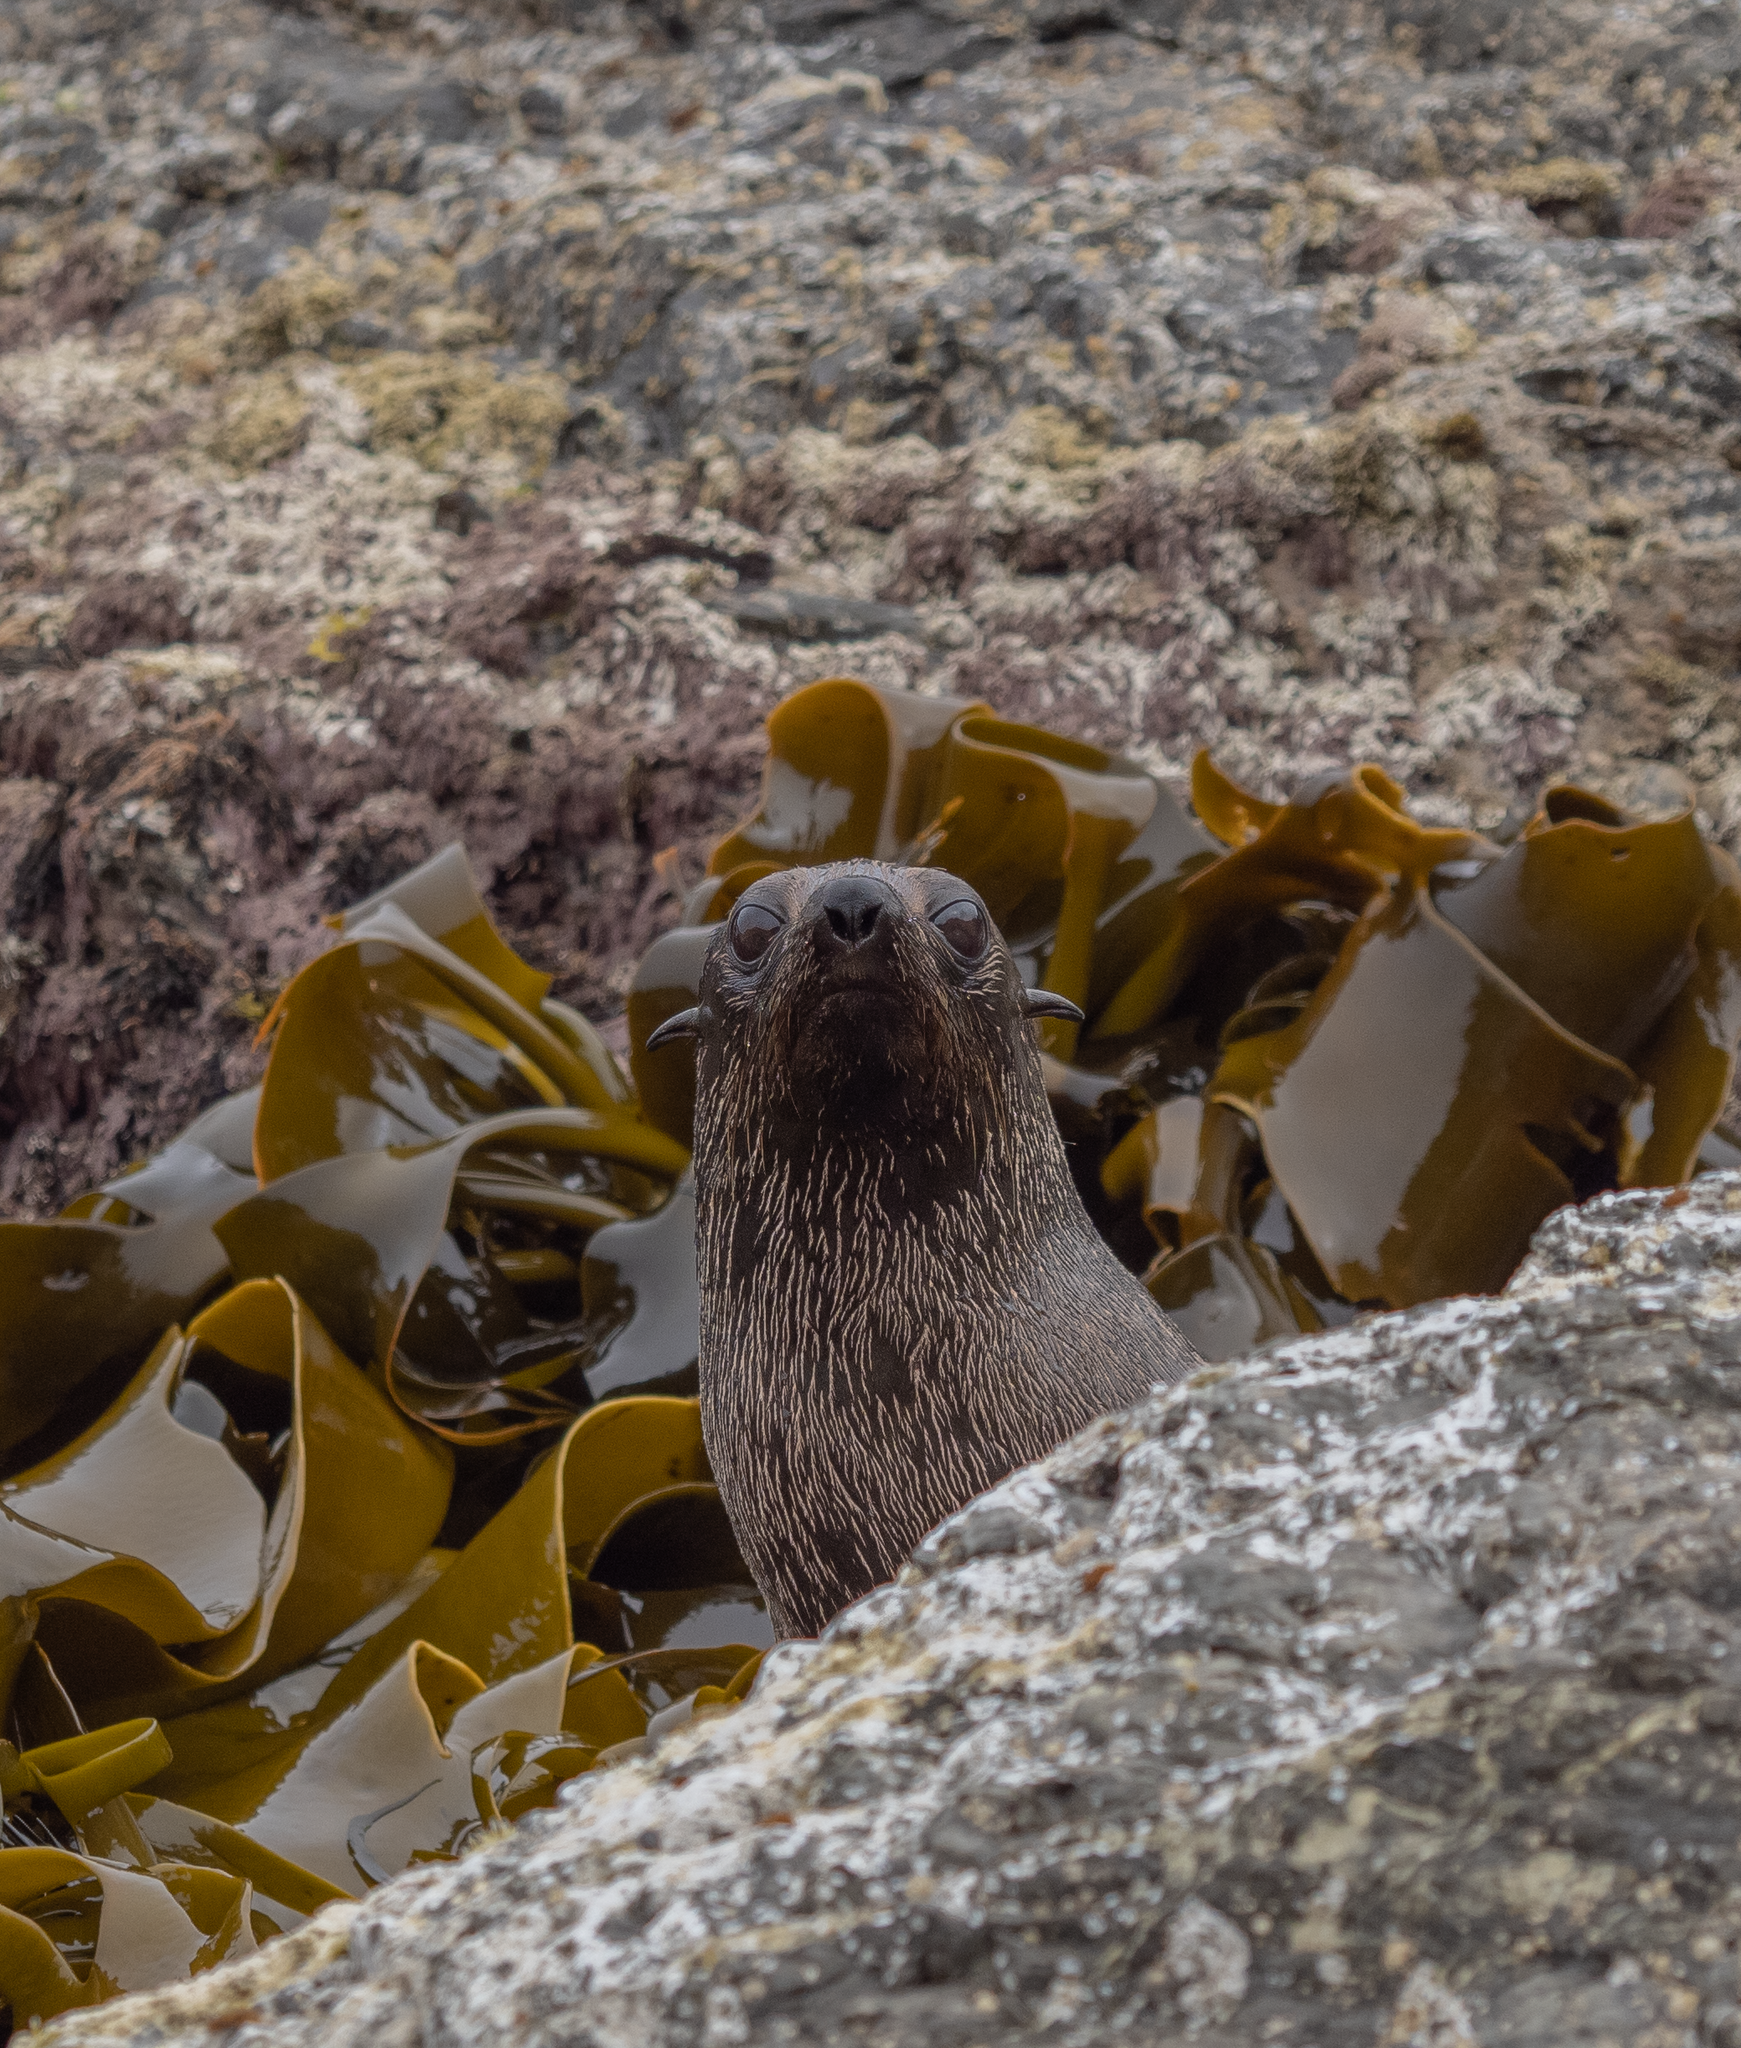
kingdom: Animalia
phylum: Chordata
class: Mammalia
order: Carnivora
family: Otariidae
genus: Arctocephalus
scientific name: Arctocephalus forsteri
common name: New zealand fur seal
